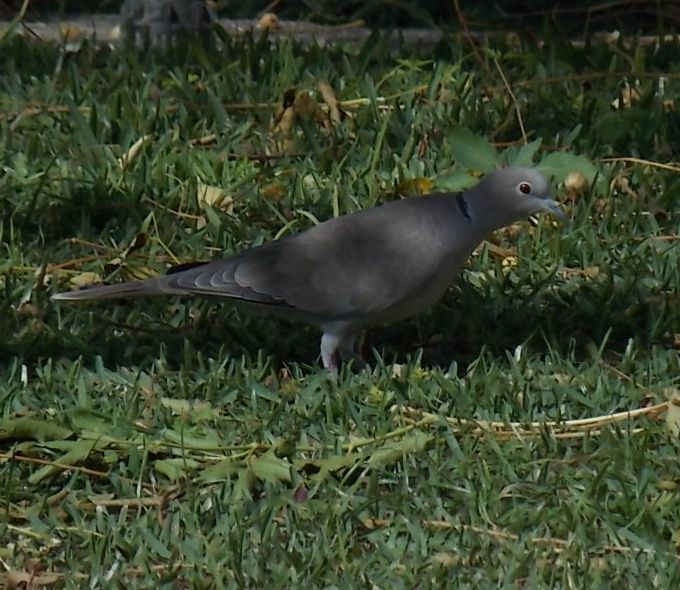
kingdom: Animalia
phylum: Chordata
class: Aves
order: Columbiformes
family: Columbidae
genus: Streptopelia
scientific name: Streptopelia decaocto
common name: Eurasian collared dove
